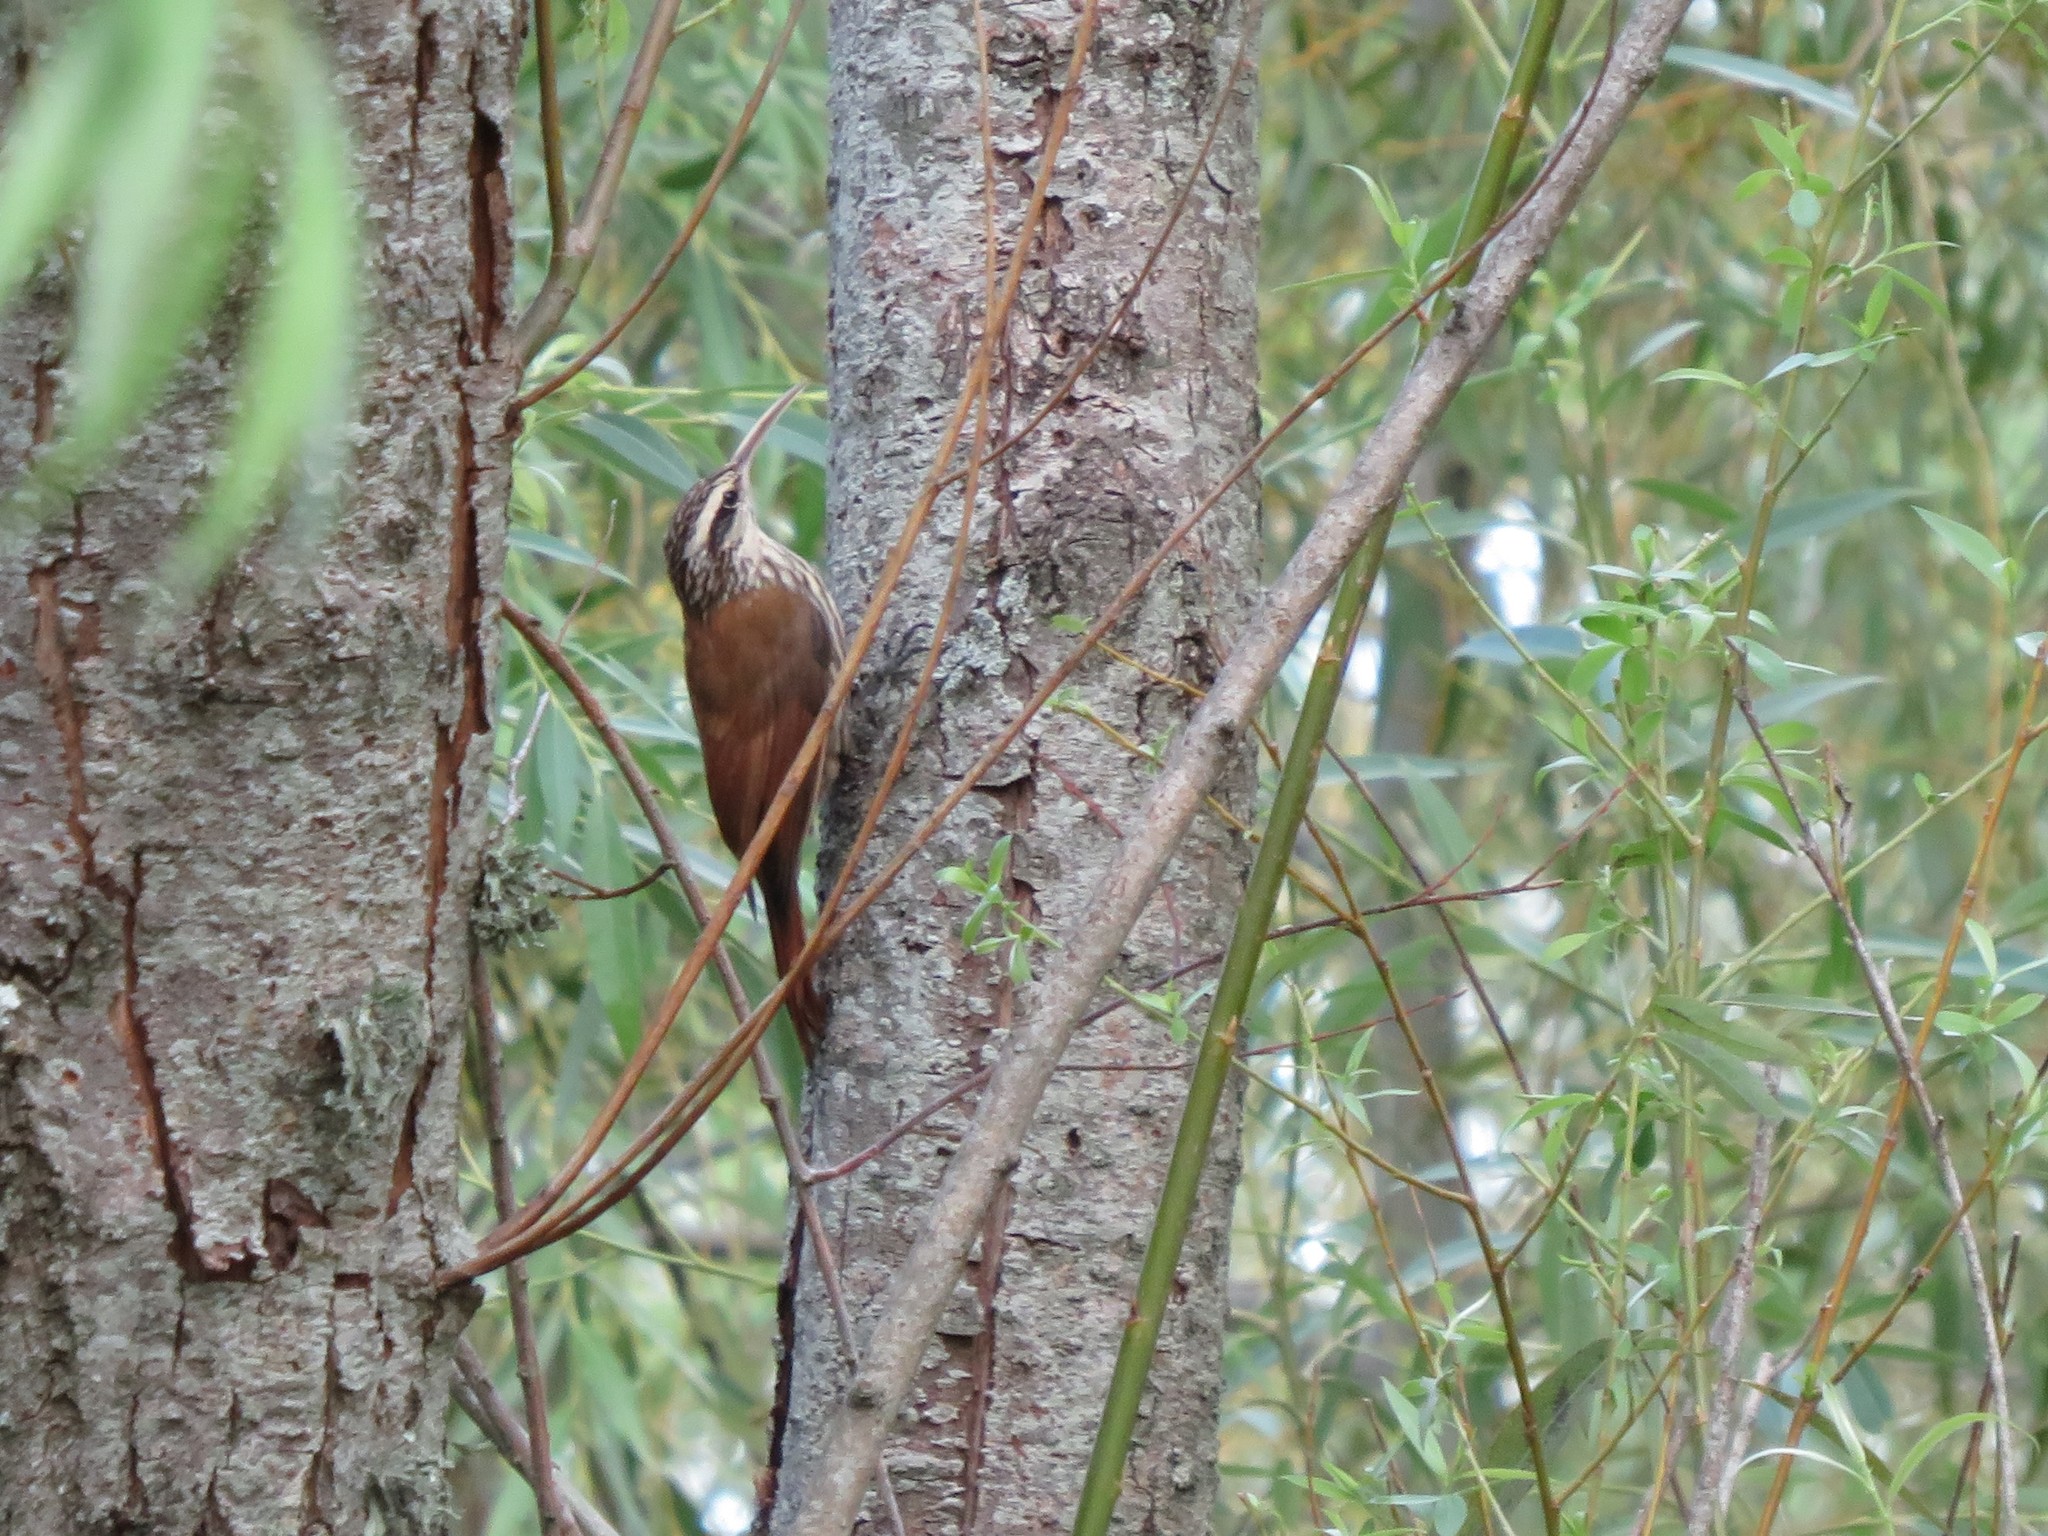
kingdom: Animalia
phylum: Chordata
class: Aves
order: Passeriformes
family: Furnariidae
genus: Lepidocolaptes
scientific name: Lepidocolaptes angustirostris
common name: Narrow-billed woodcreeper
